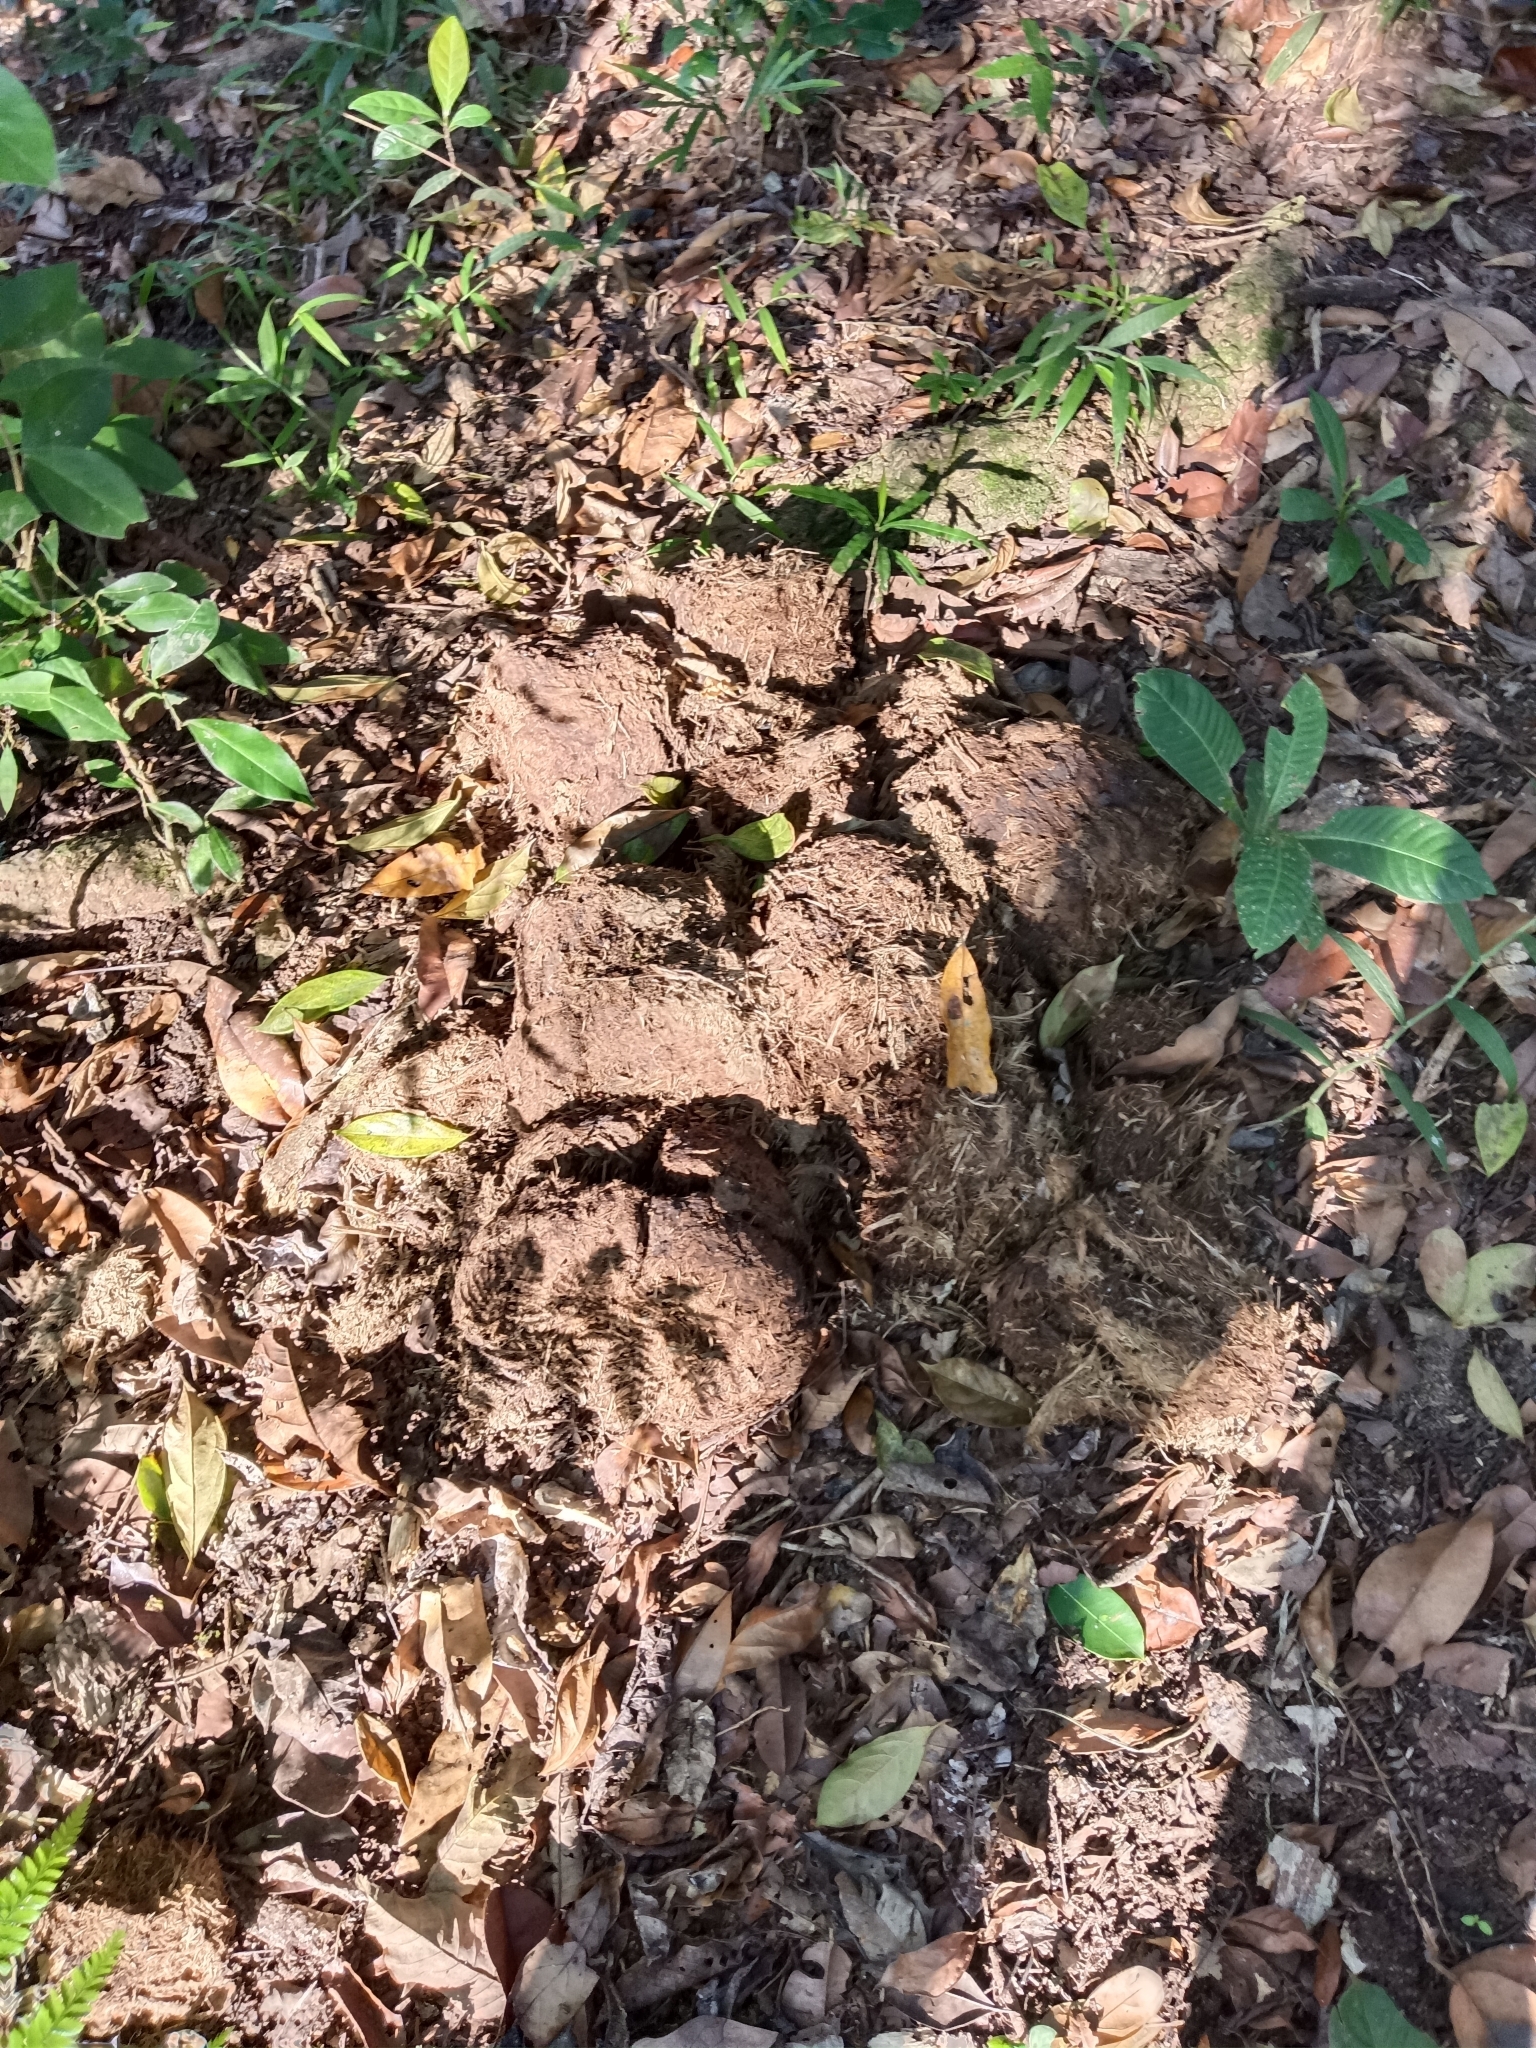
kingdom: Animalia
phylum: Chordata
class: Mammalia
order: Proboscidea
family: Elephantidae
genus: Elephas
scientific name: Elephas maximus
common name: Asian elephant
